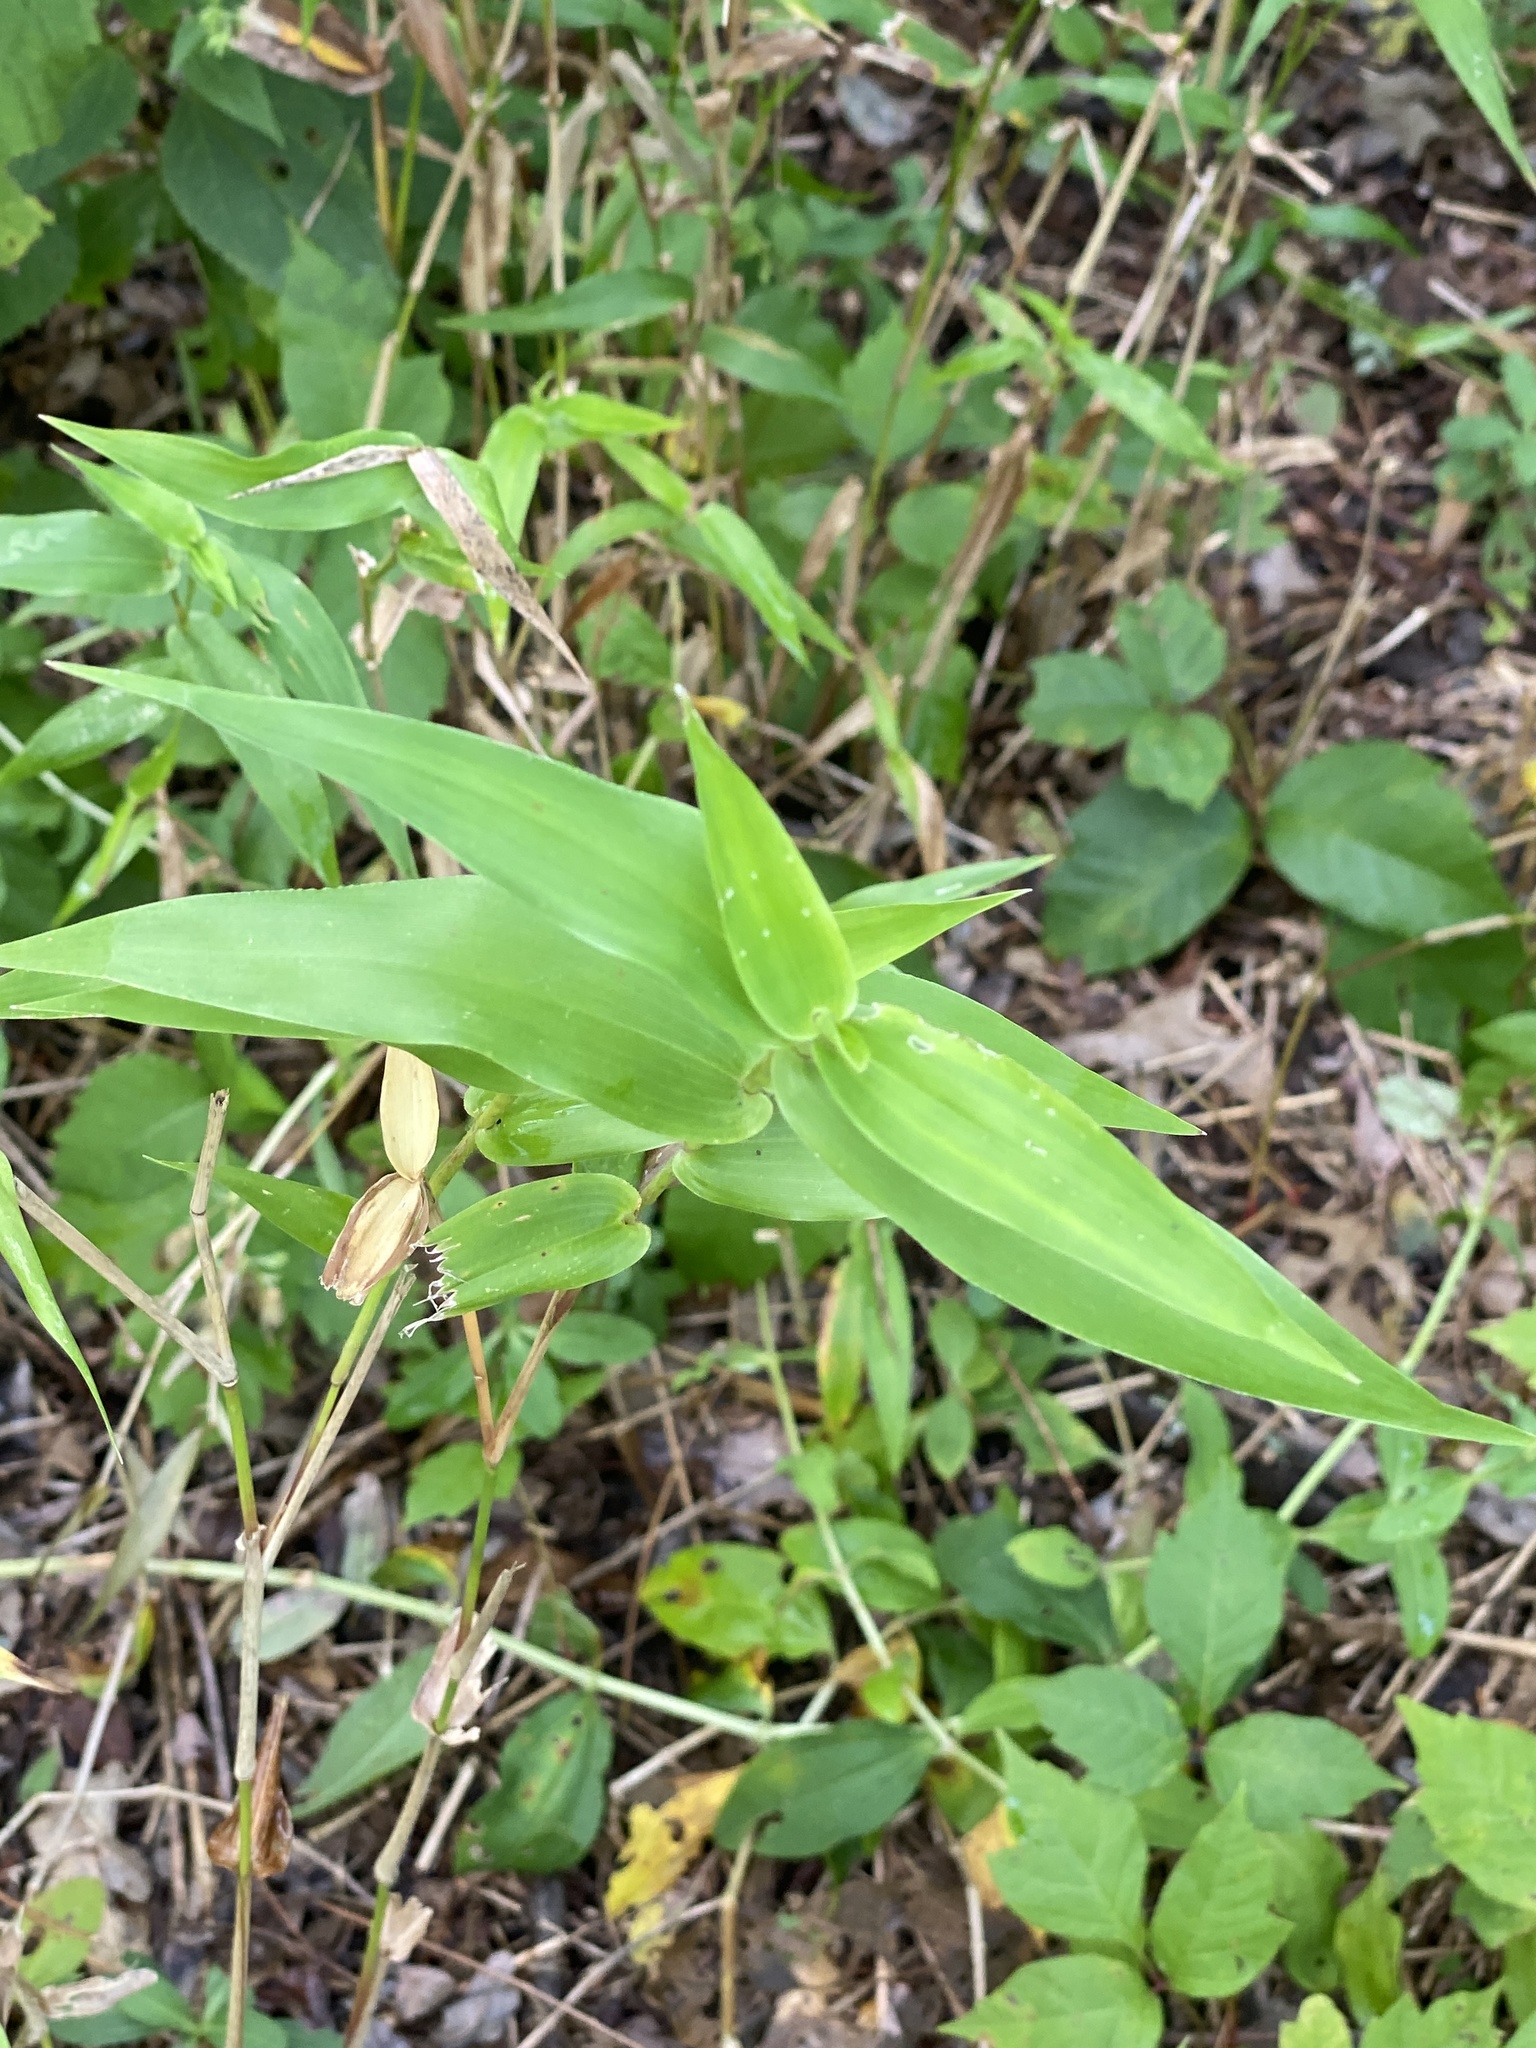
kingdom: Plantae
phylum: Tracheophyta
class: Liliopsida
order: Poales
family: Poaceae
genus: Dichanthelium
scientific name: Dichanthelium clandestinum
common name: Deer-tongue grass
